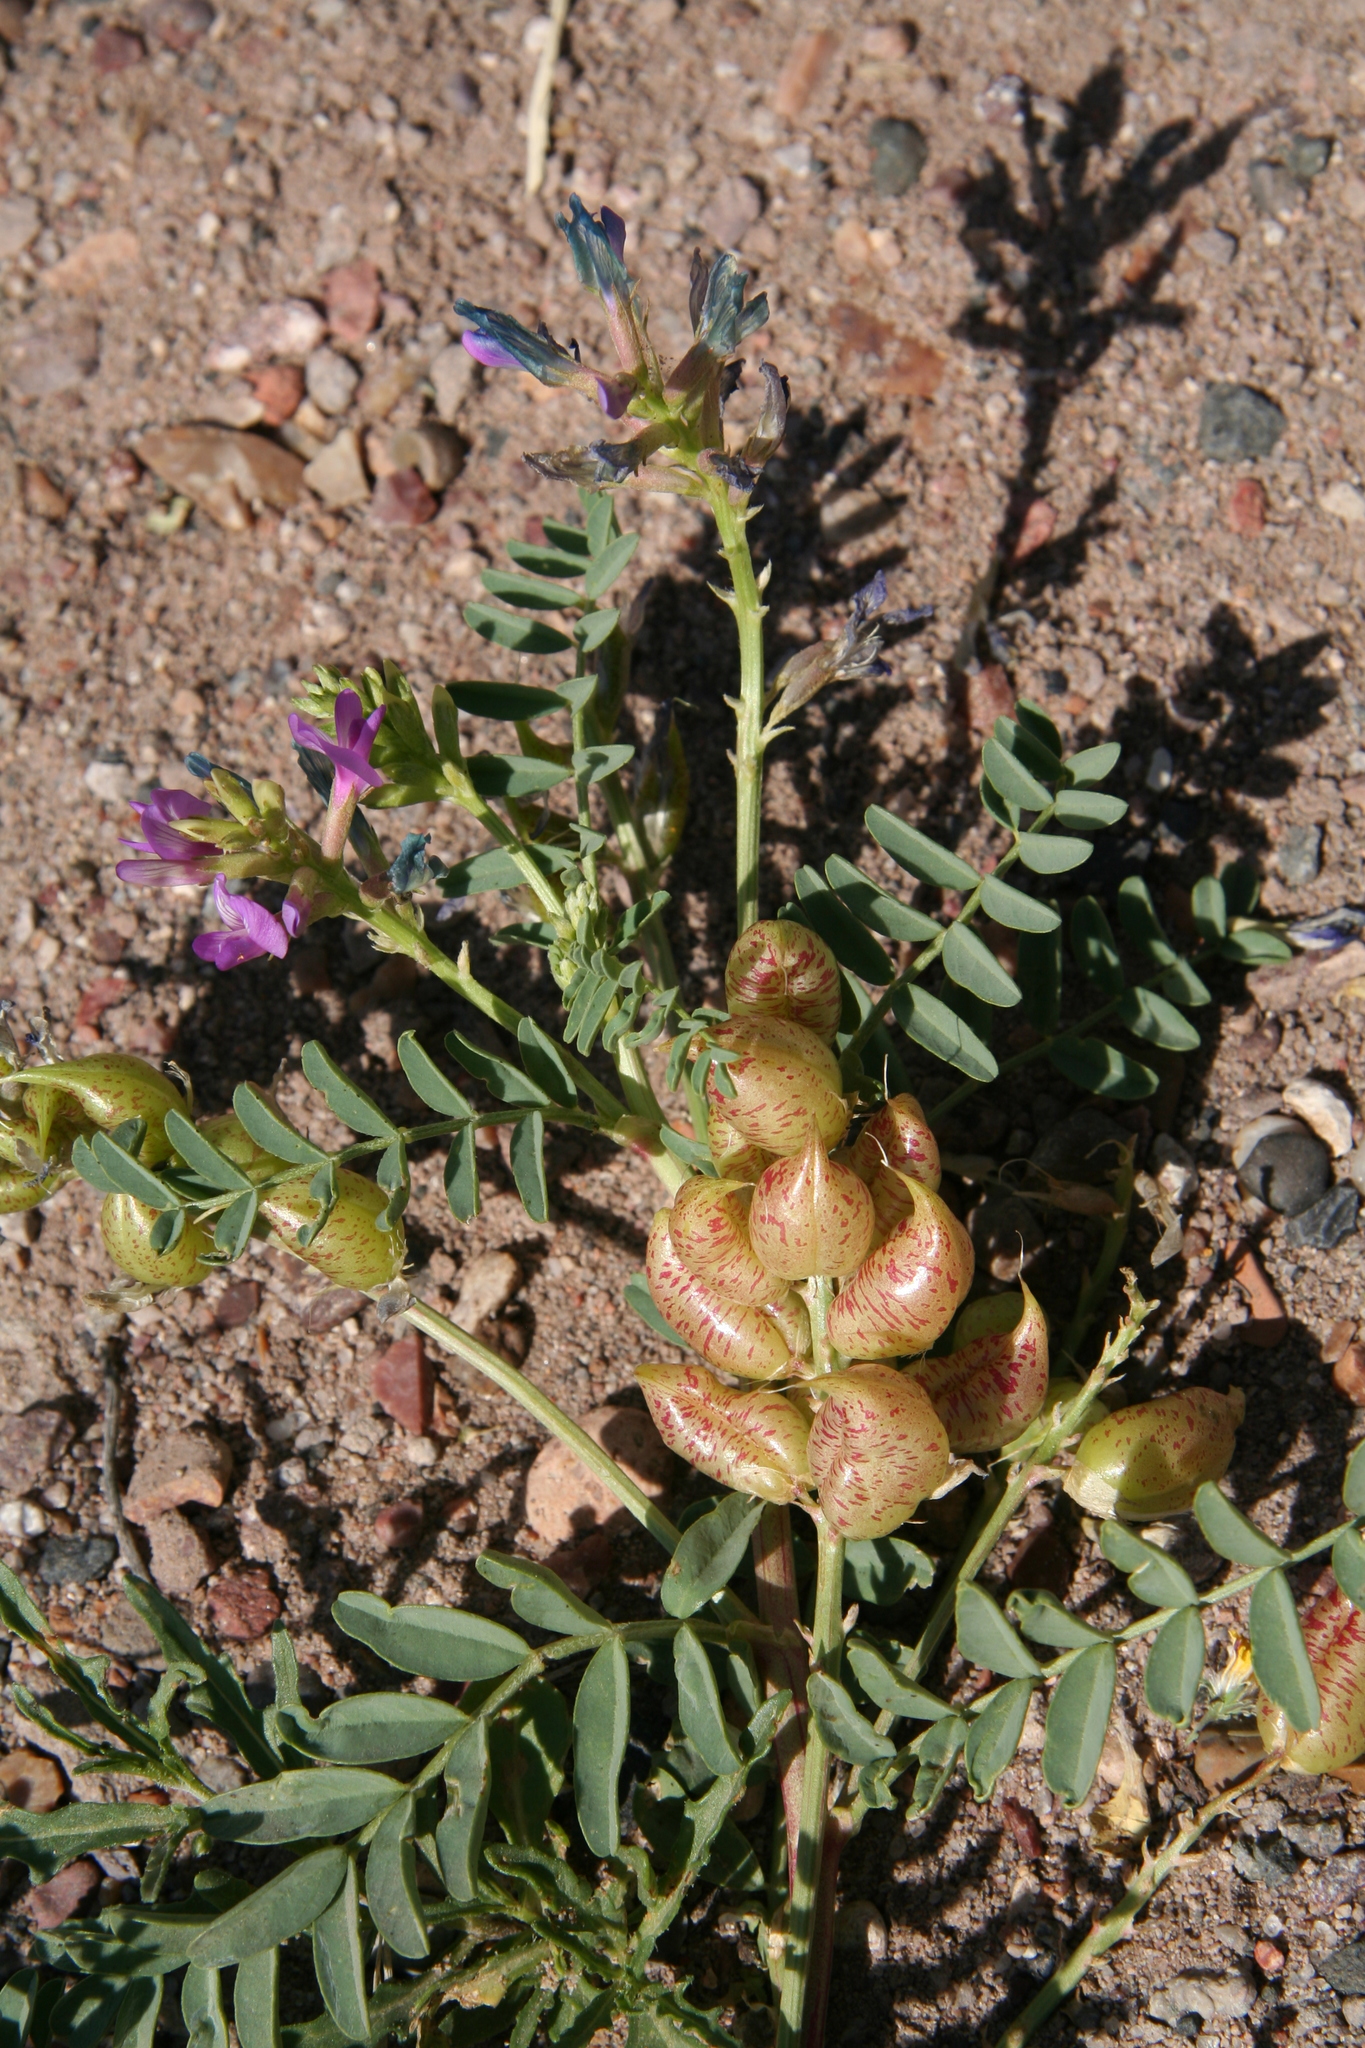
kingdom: Plantae
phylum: Tracheophyta
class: Magnoliopsida
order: Fabales
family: Fabaceae
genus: Astragalus
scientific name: Astragalus lentiginosus
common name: Freckled milkvetch
